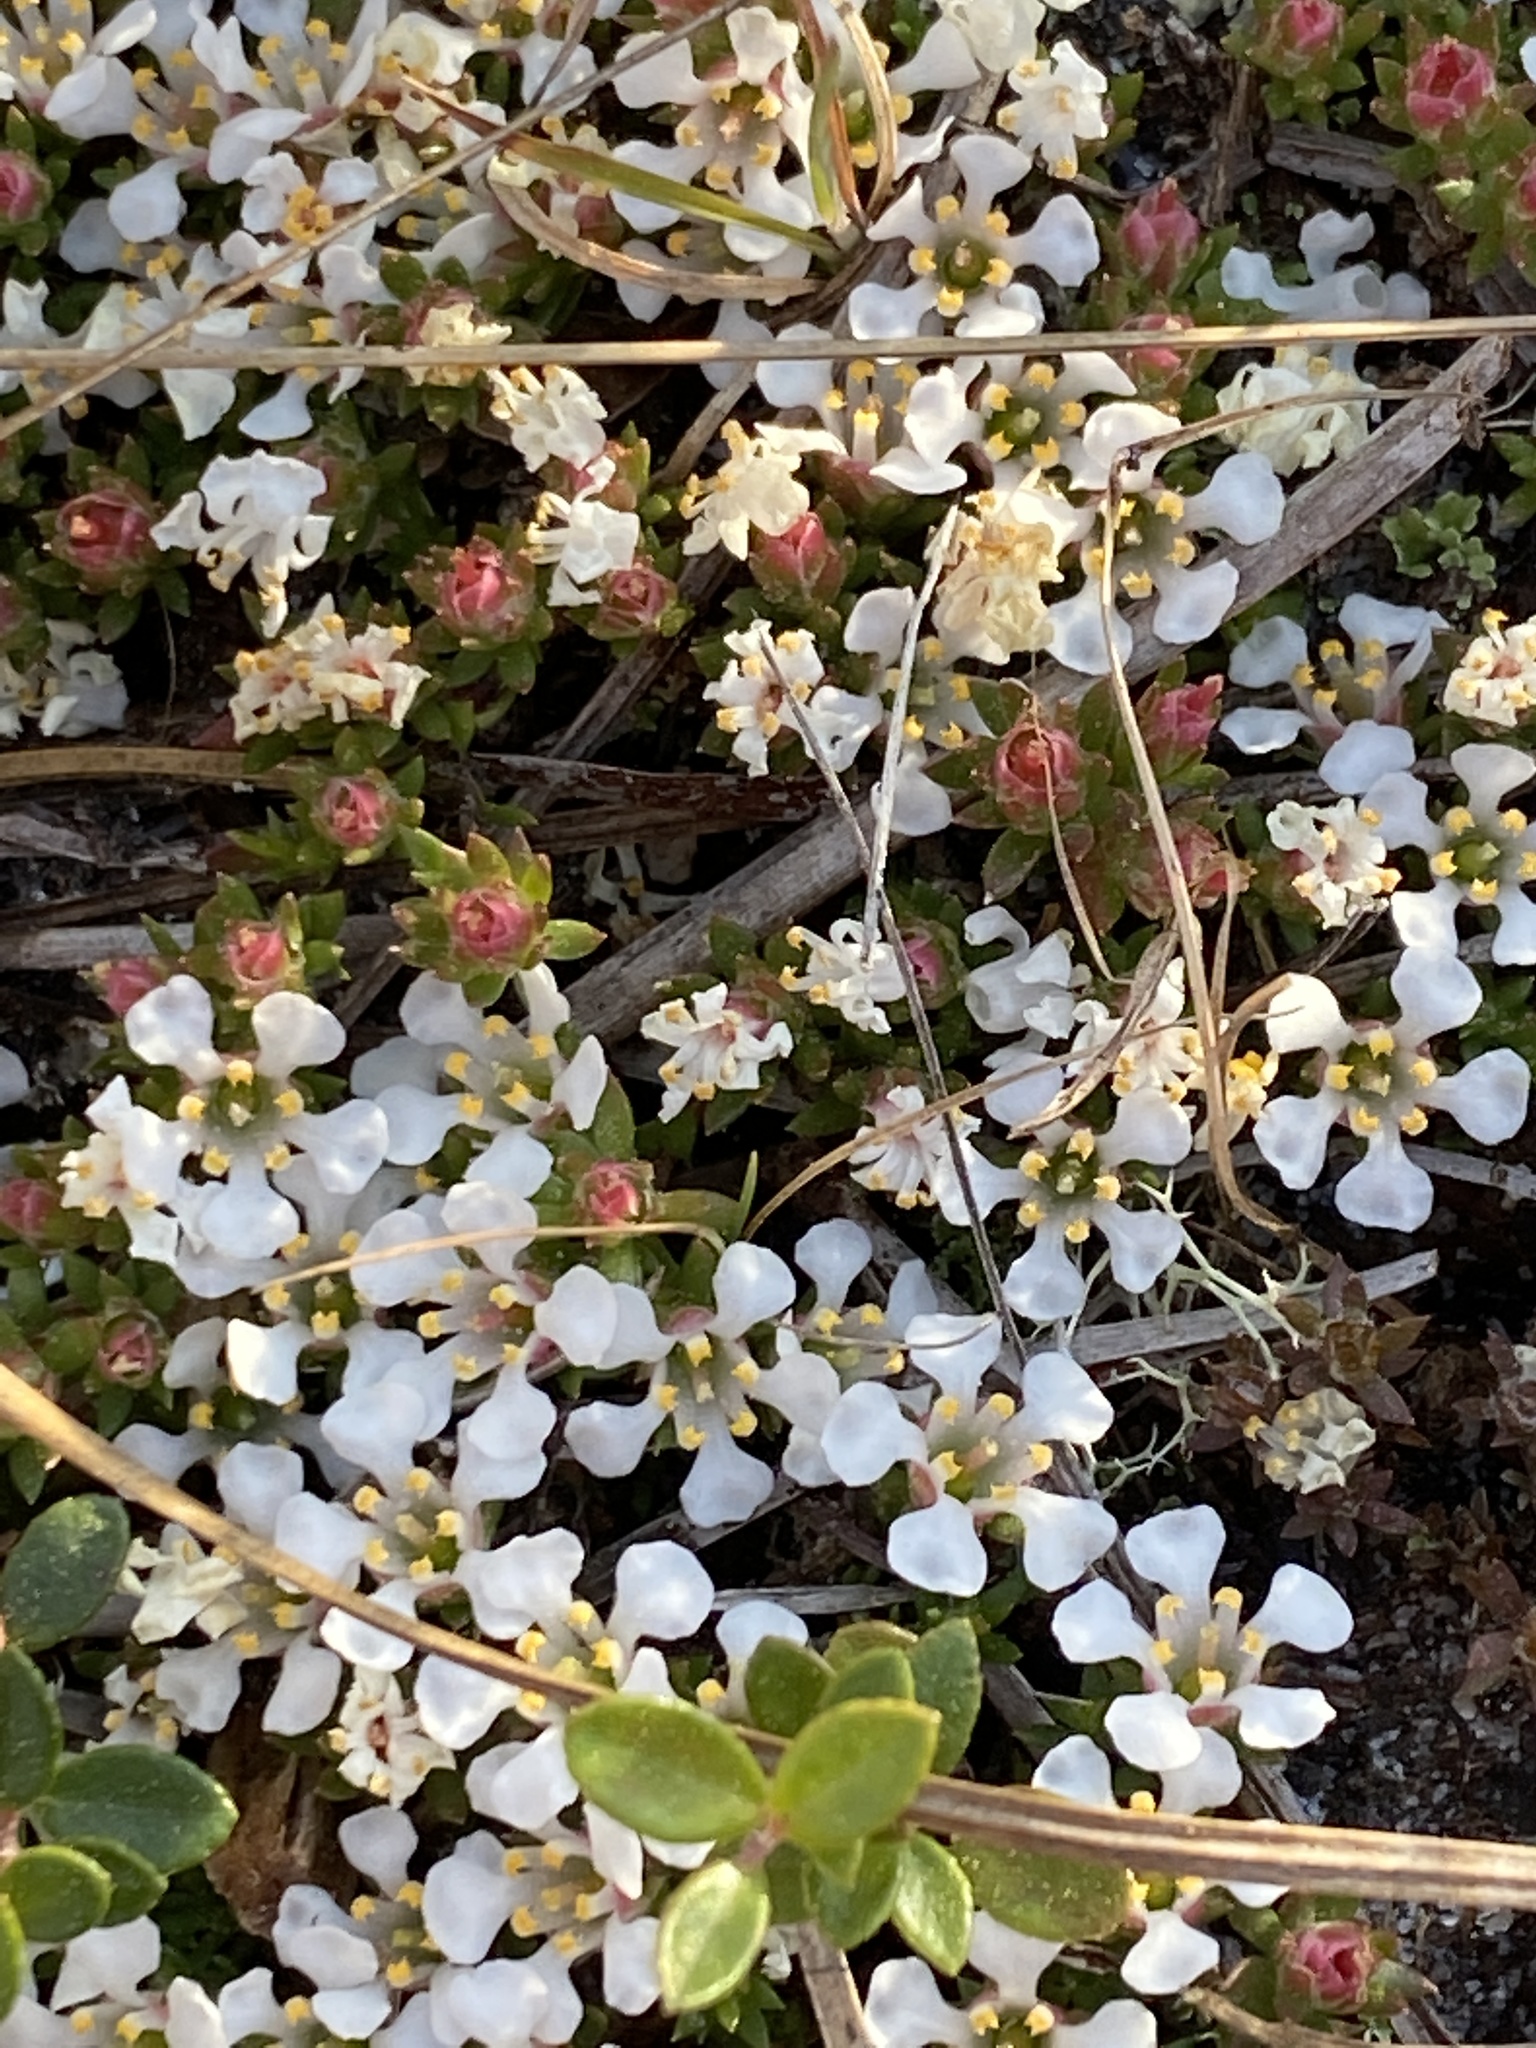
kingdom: Plantae
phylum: Tracheophyta
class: Magnoliopsida
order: Ericales
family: Diapensiaceae
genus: Pyxidanthera
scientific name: Pyxidanthera barbulata
